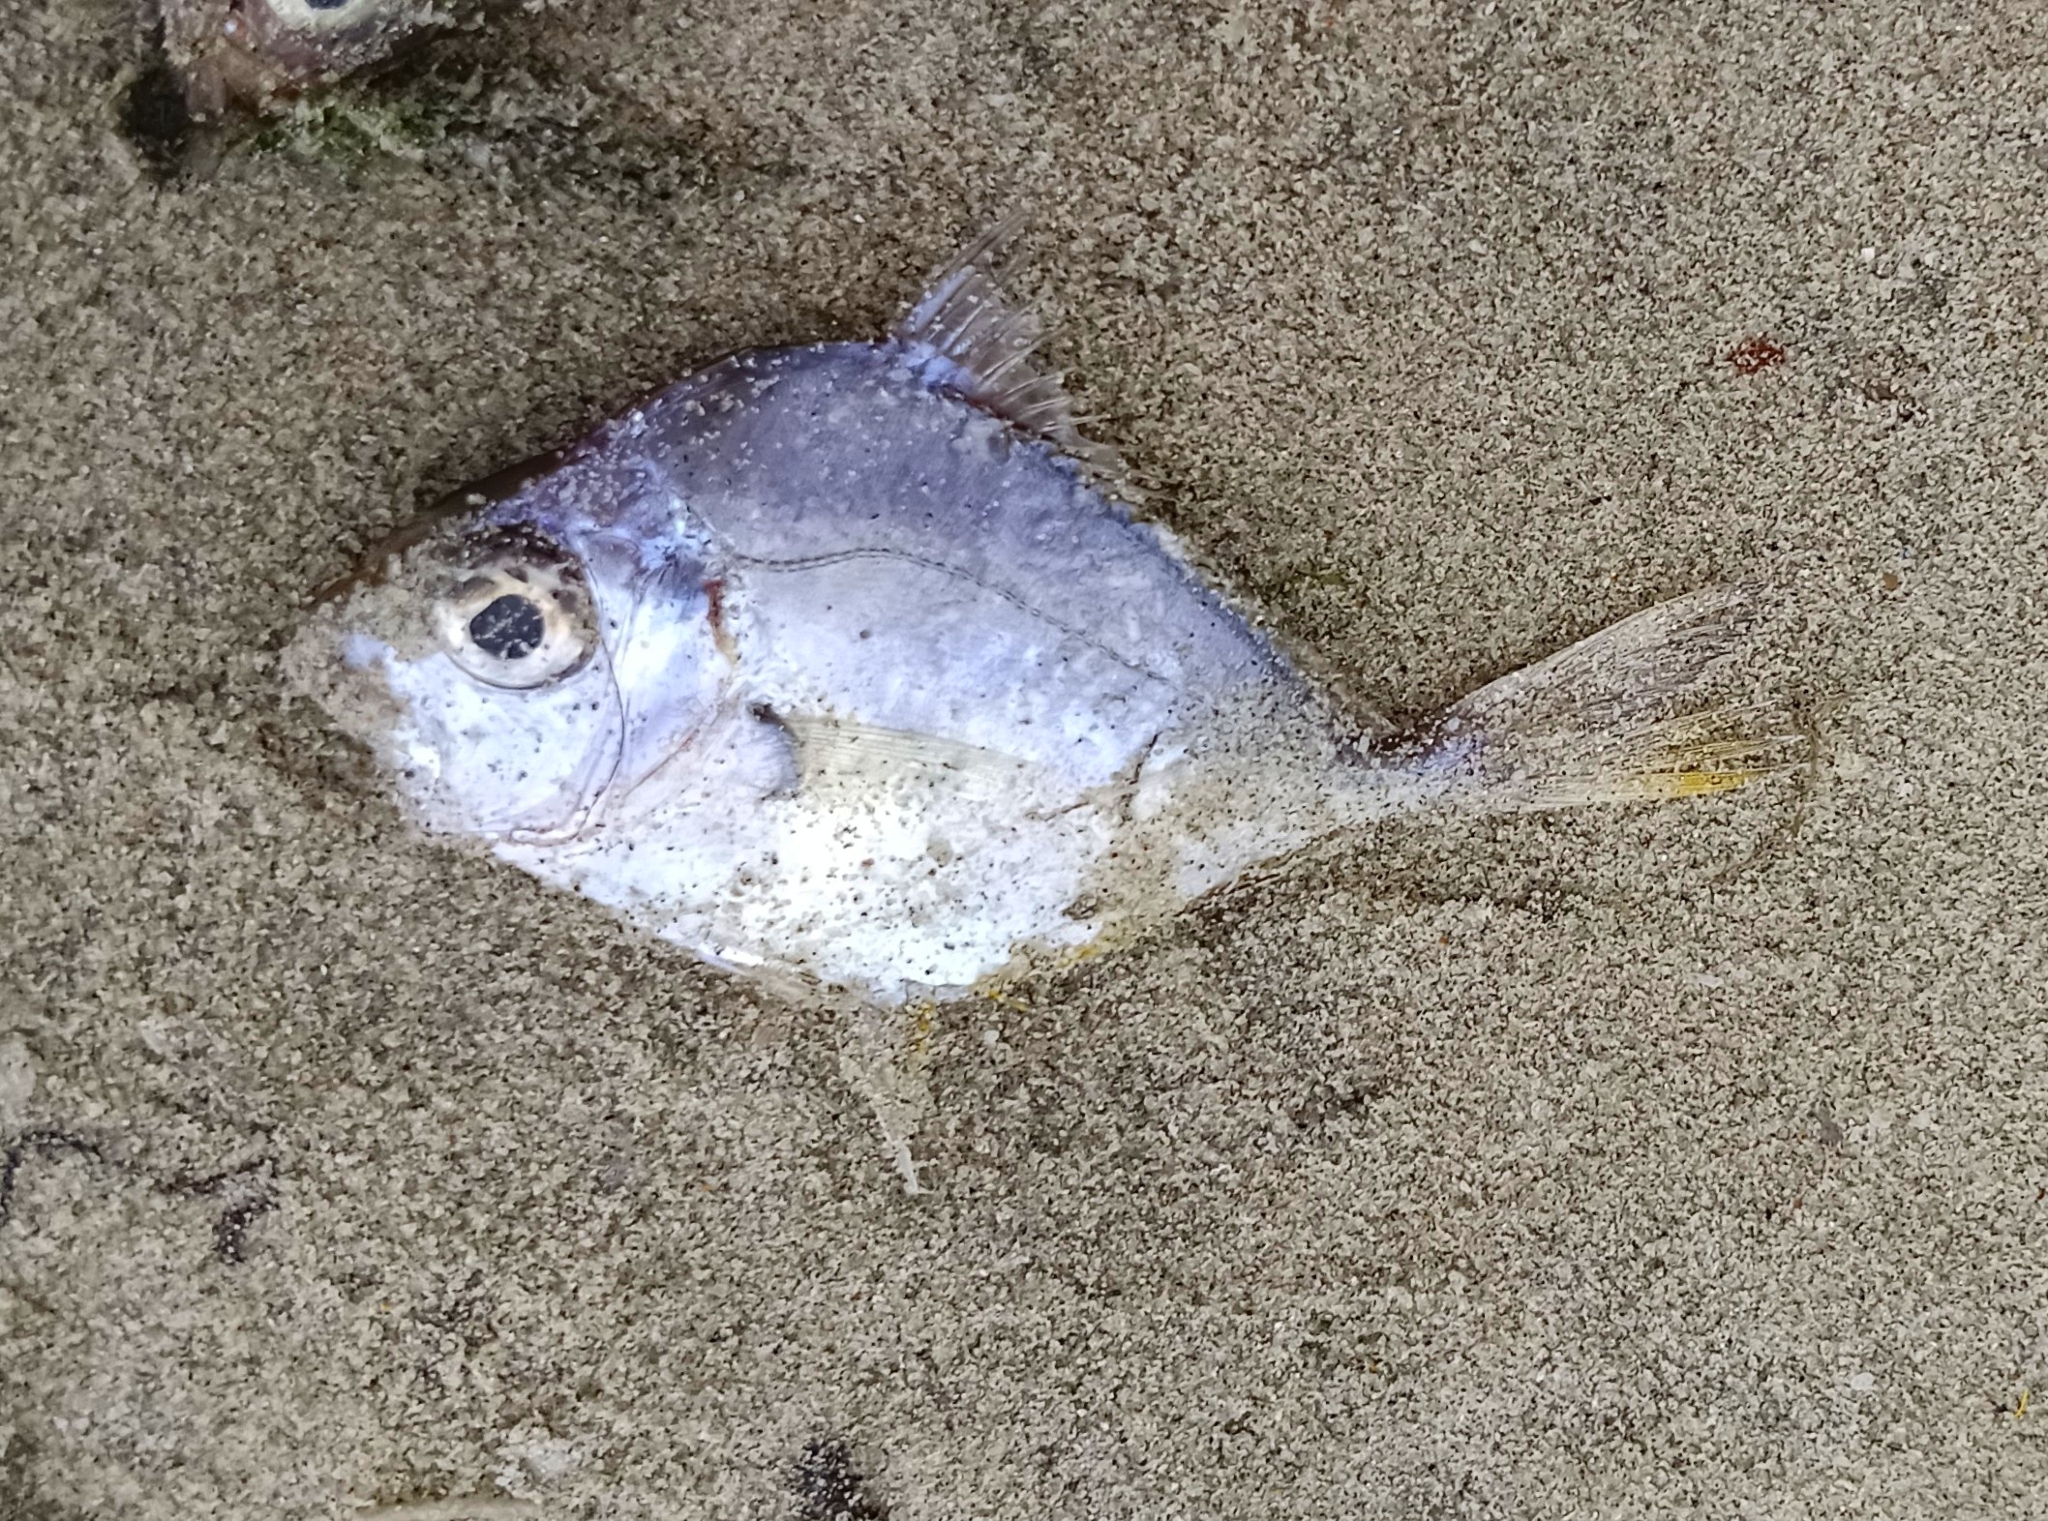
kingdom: Animalia
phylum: Chordata
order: Perciformes
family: Leiognathidae
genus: Leiognathus
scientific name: Leiognathus equulus
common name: Common ponyfish
